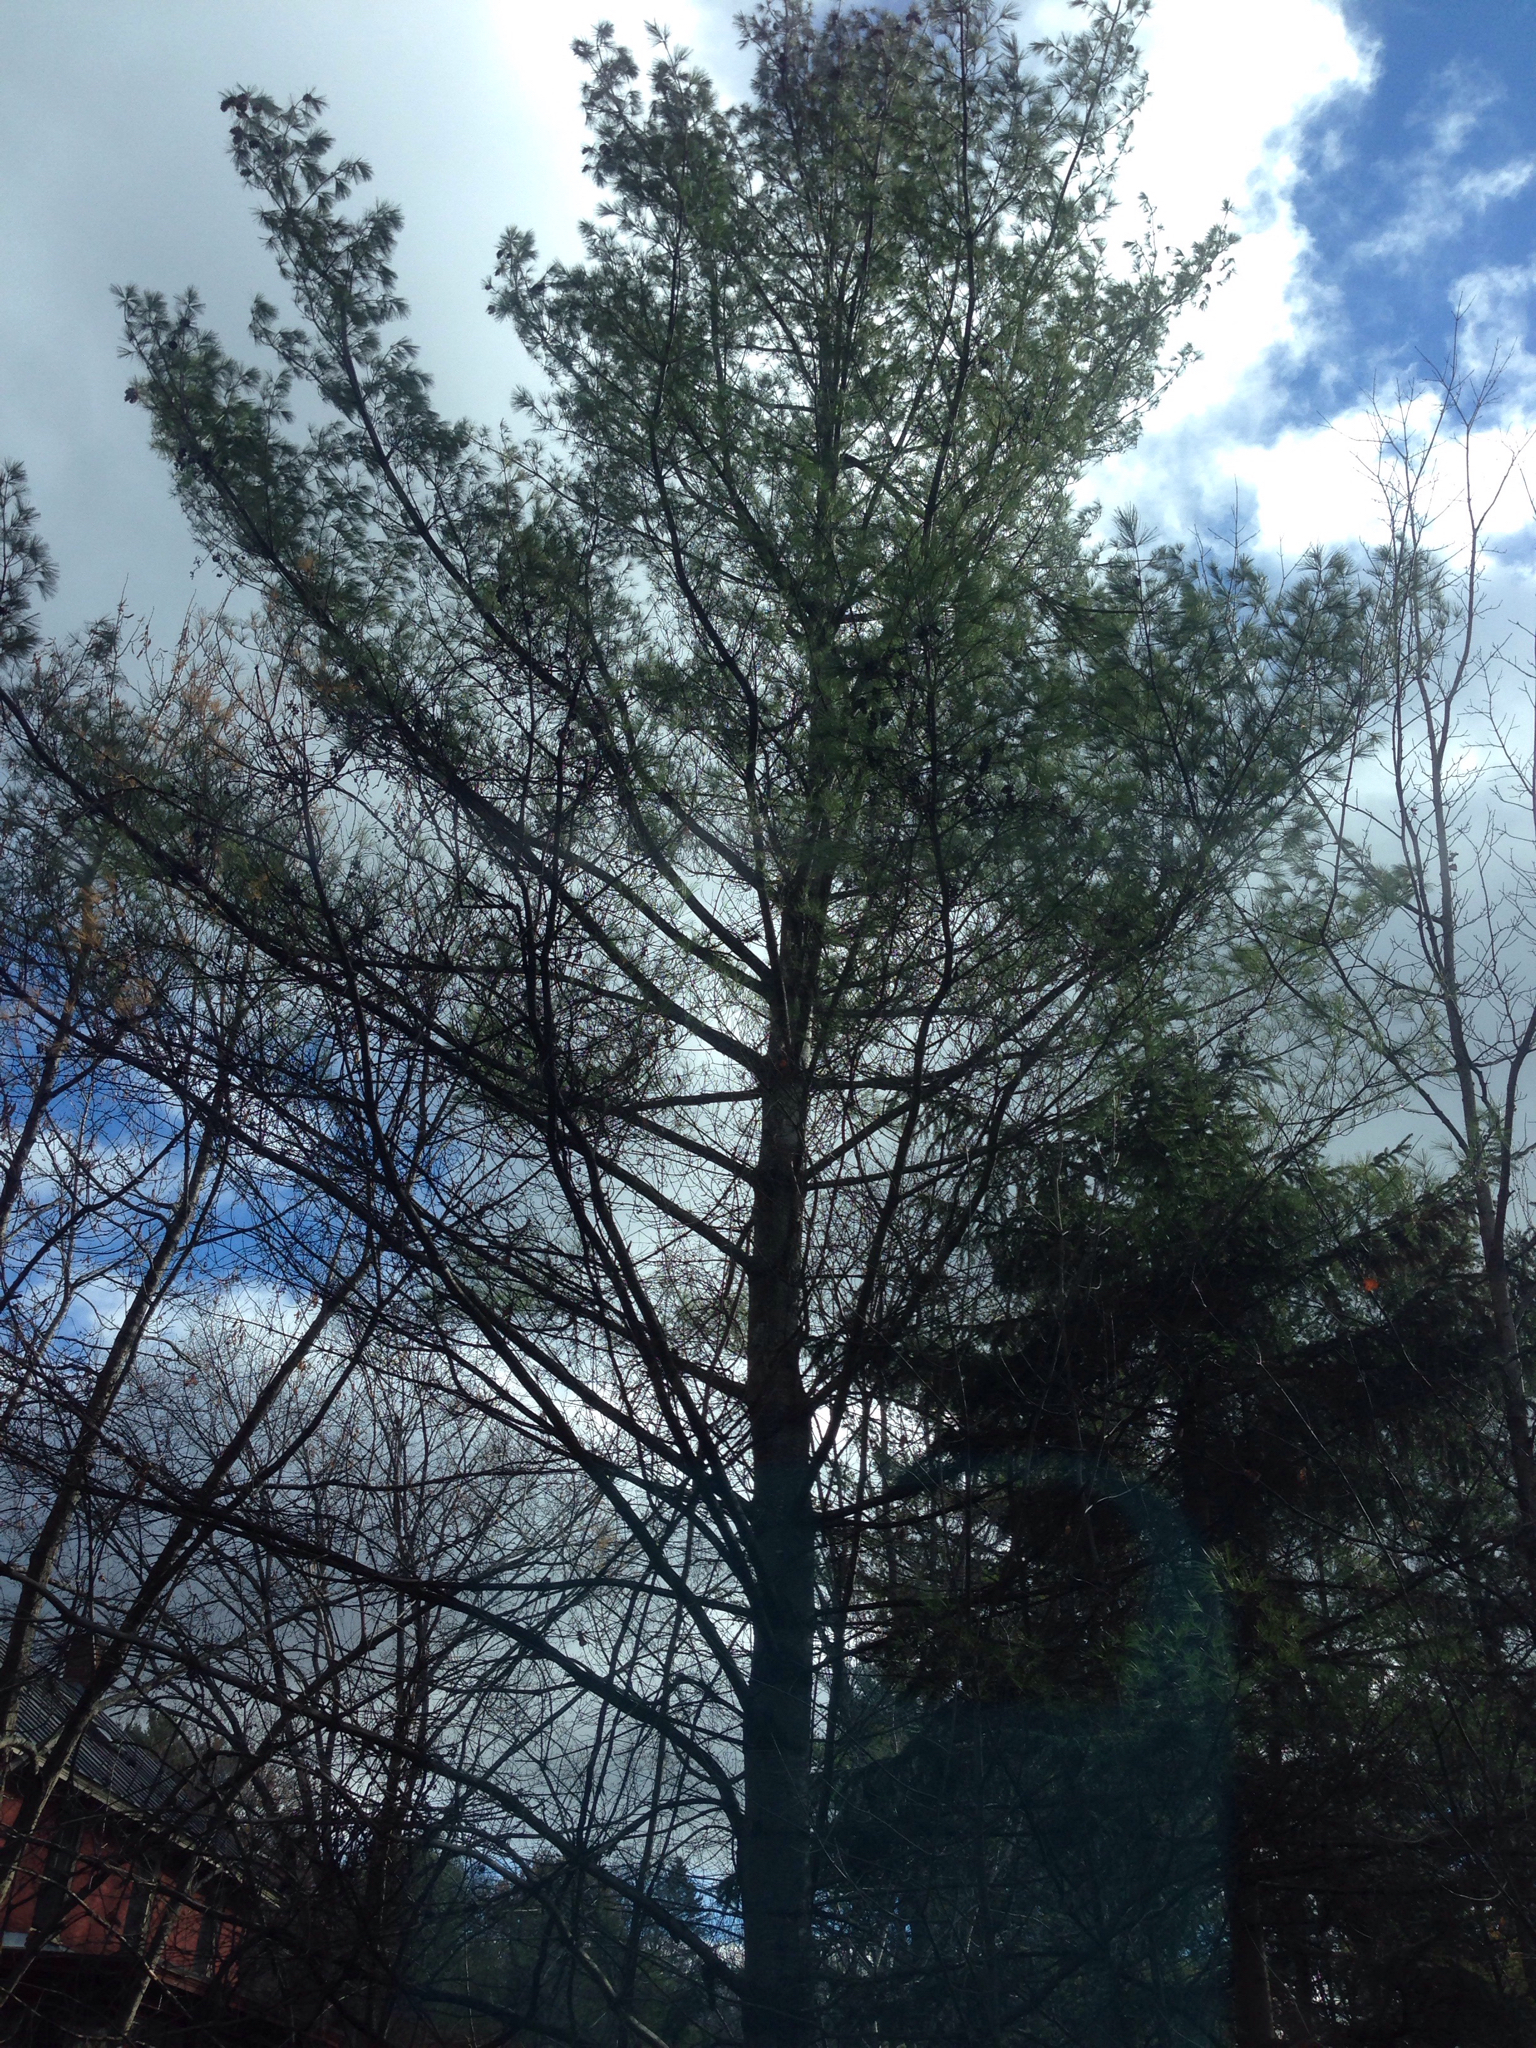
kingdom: Plantae
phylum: Tracheophyta
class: Pinopsida
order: Pinales
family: Pinaceae
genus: Pinus
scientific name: Pinus strobus
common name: Weymouth pine
